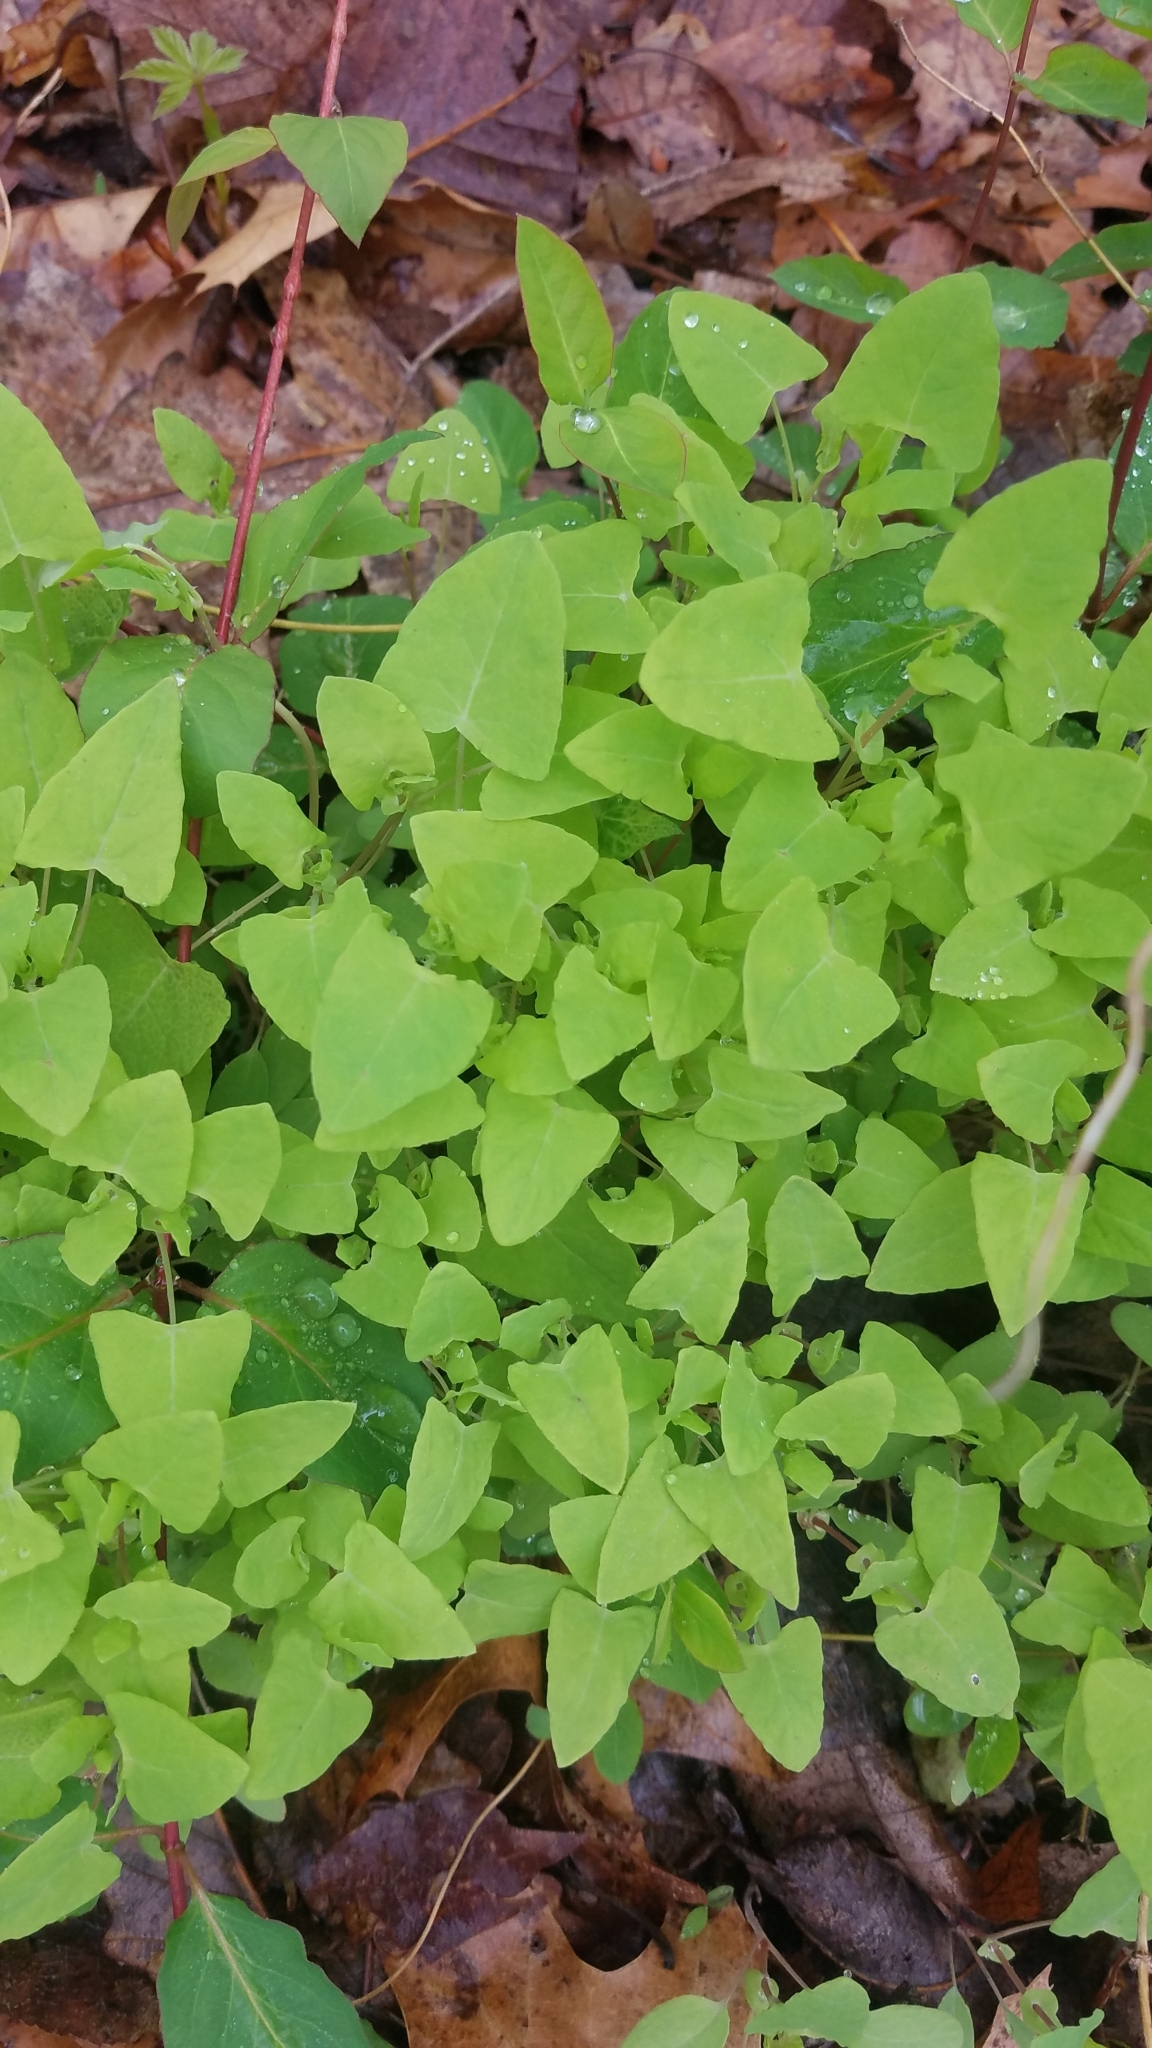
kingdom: Plantae
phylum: Tracheophyta
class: Magnoliopsida
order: Caryophyllales
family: Polygonaceae
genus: Persicaria
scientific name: Persicaria perfoliata
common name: Asiatic tearthumb
